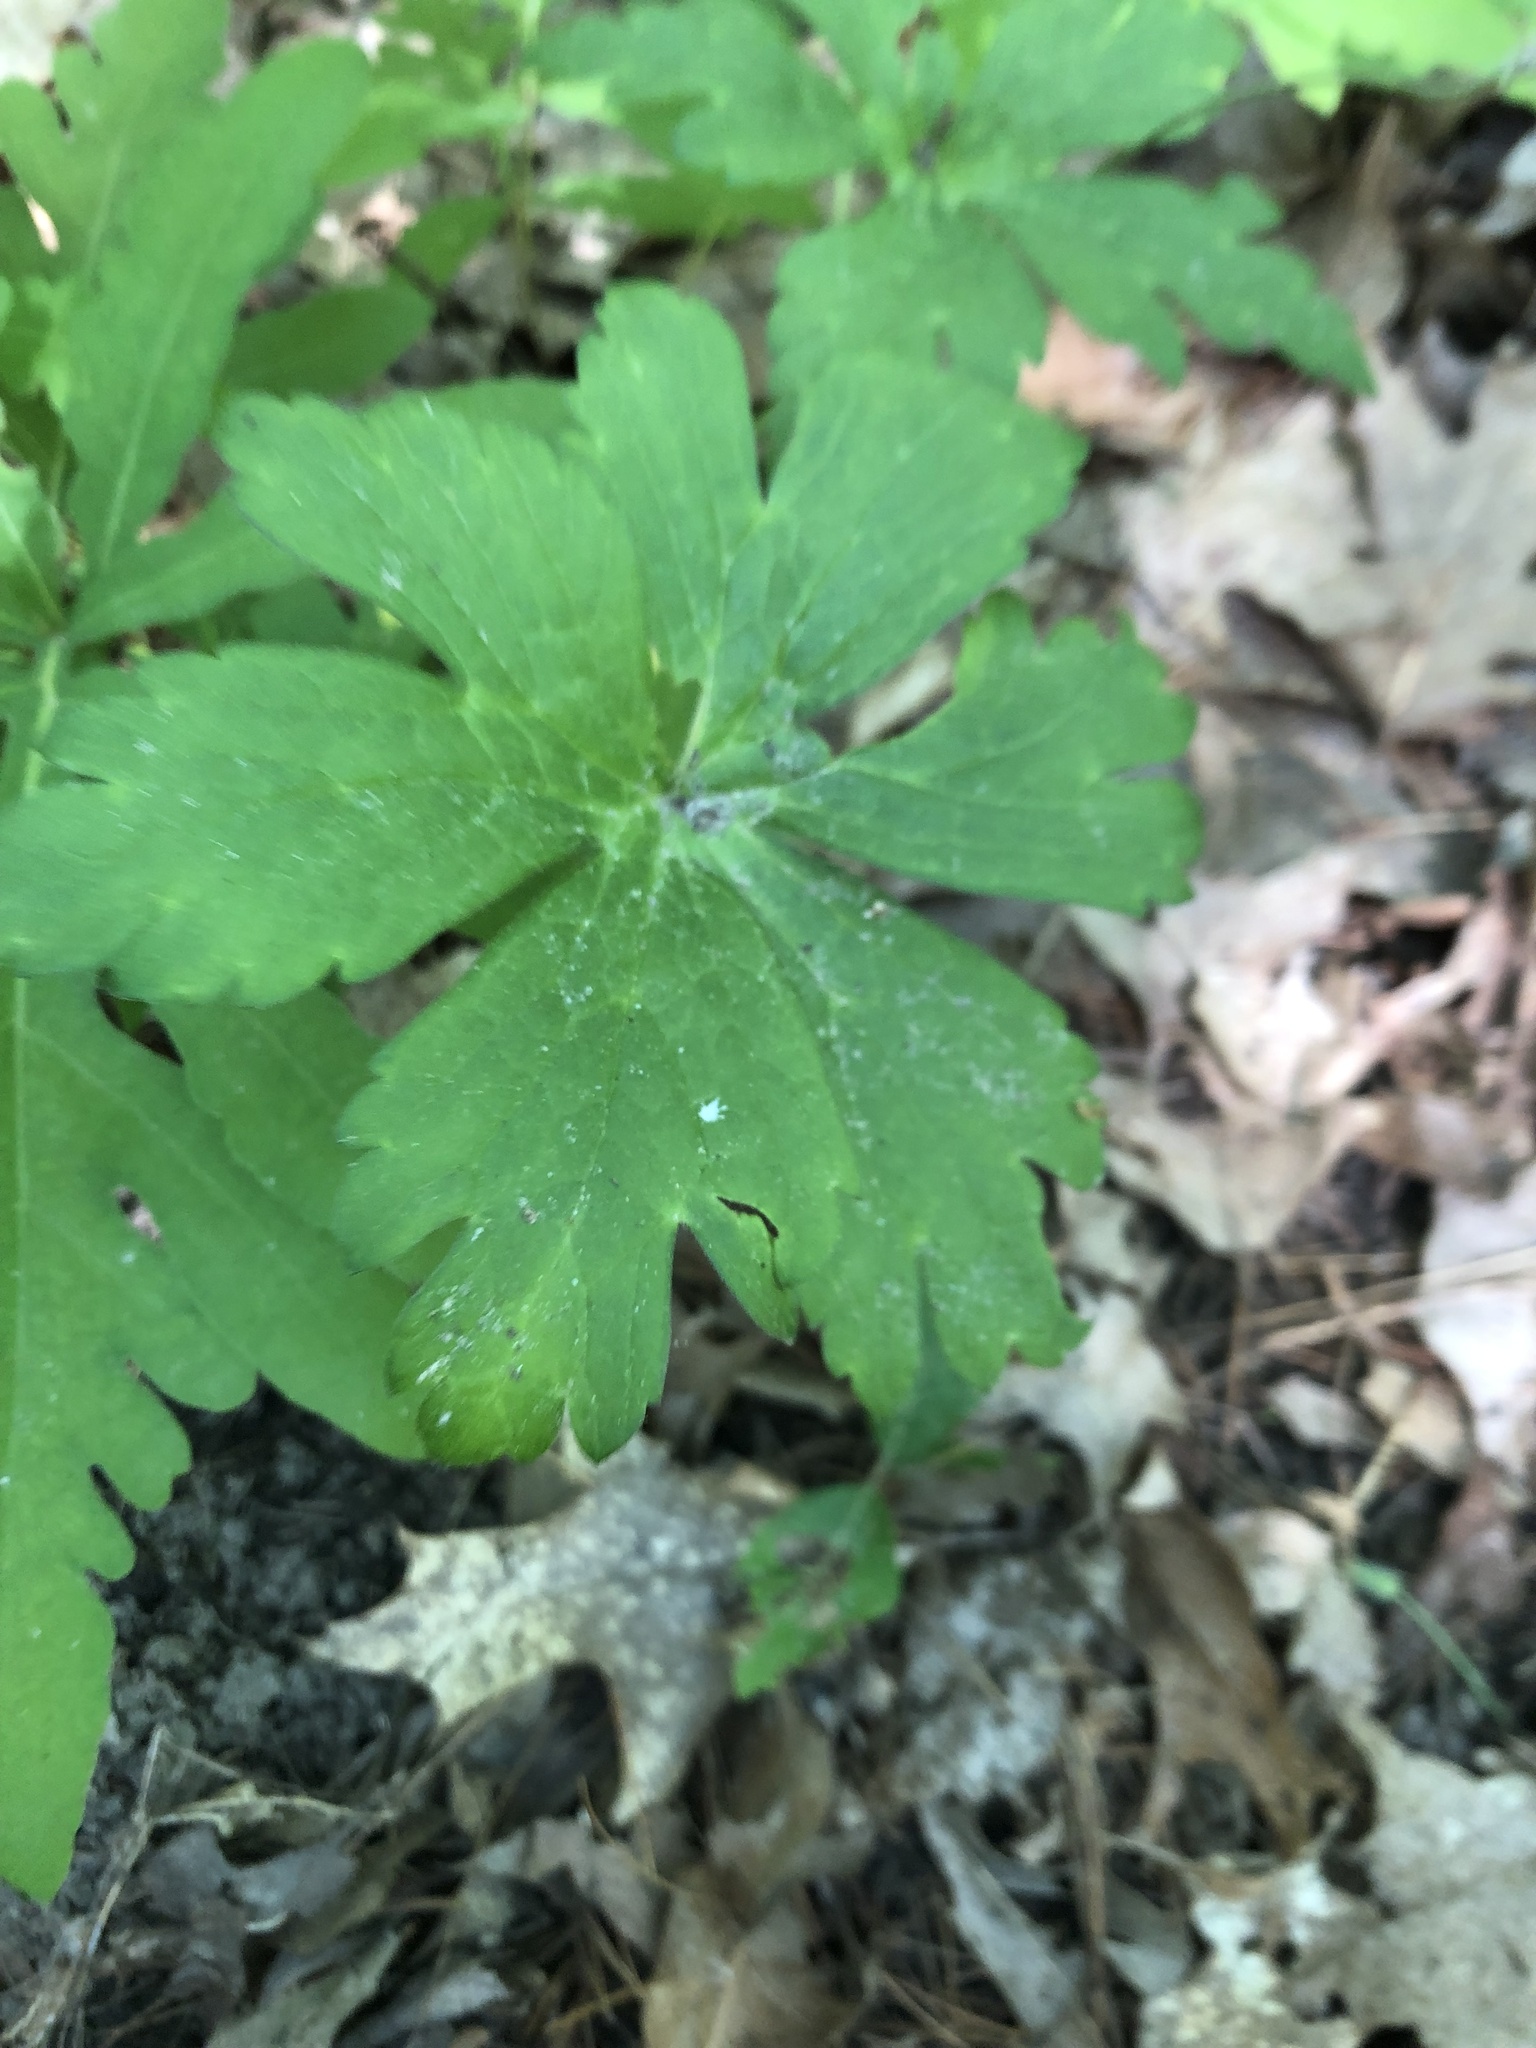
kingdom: Plantae
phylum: Tracheophyta
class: Magnoliopsida
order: Geraniales
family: Geraniaceae
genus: Geranium
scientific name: Geranium
